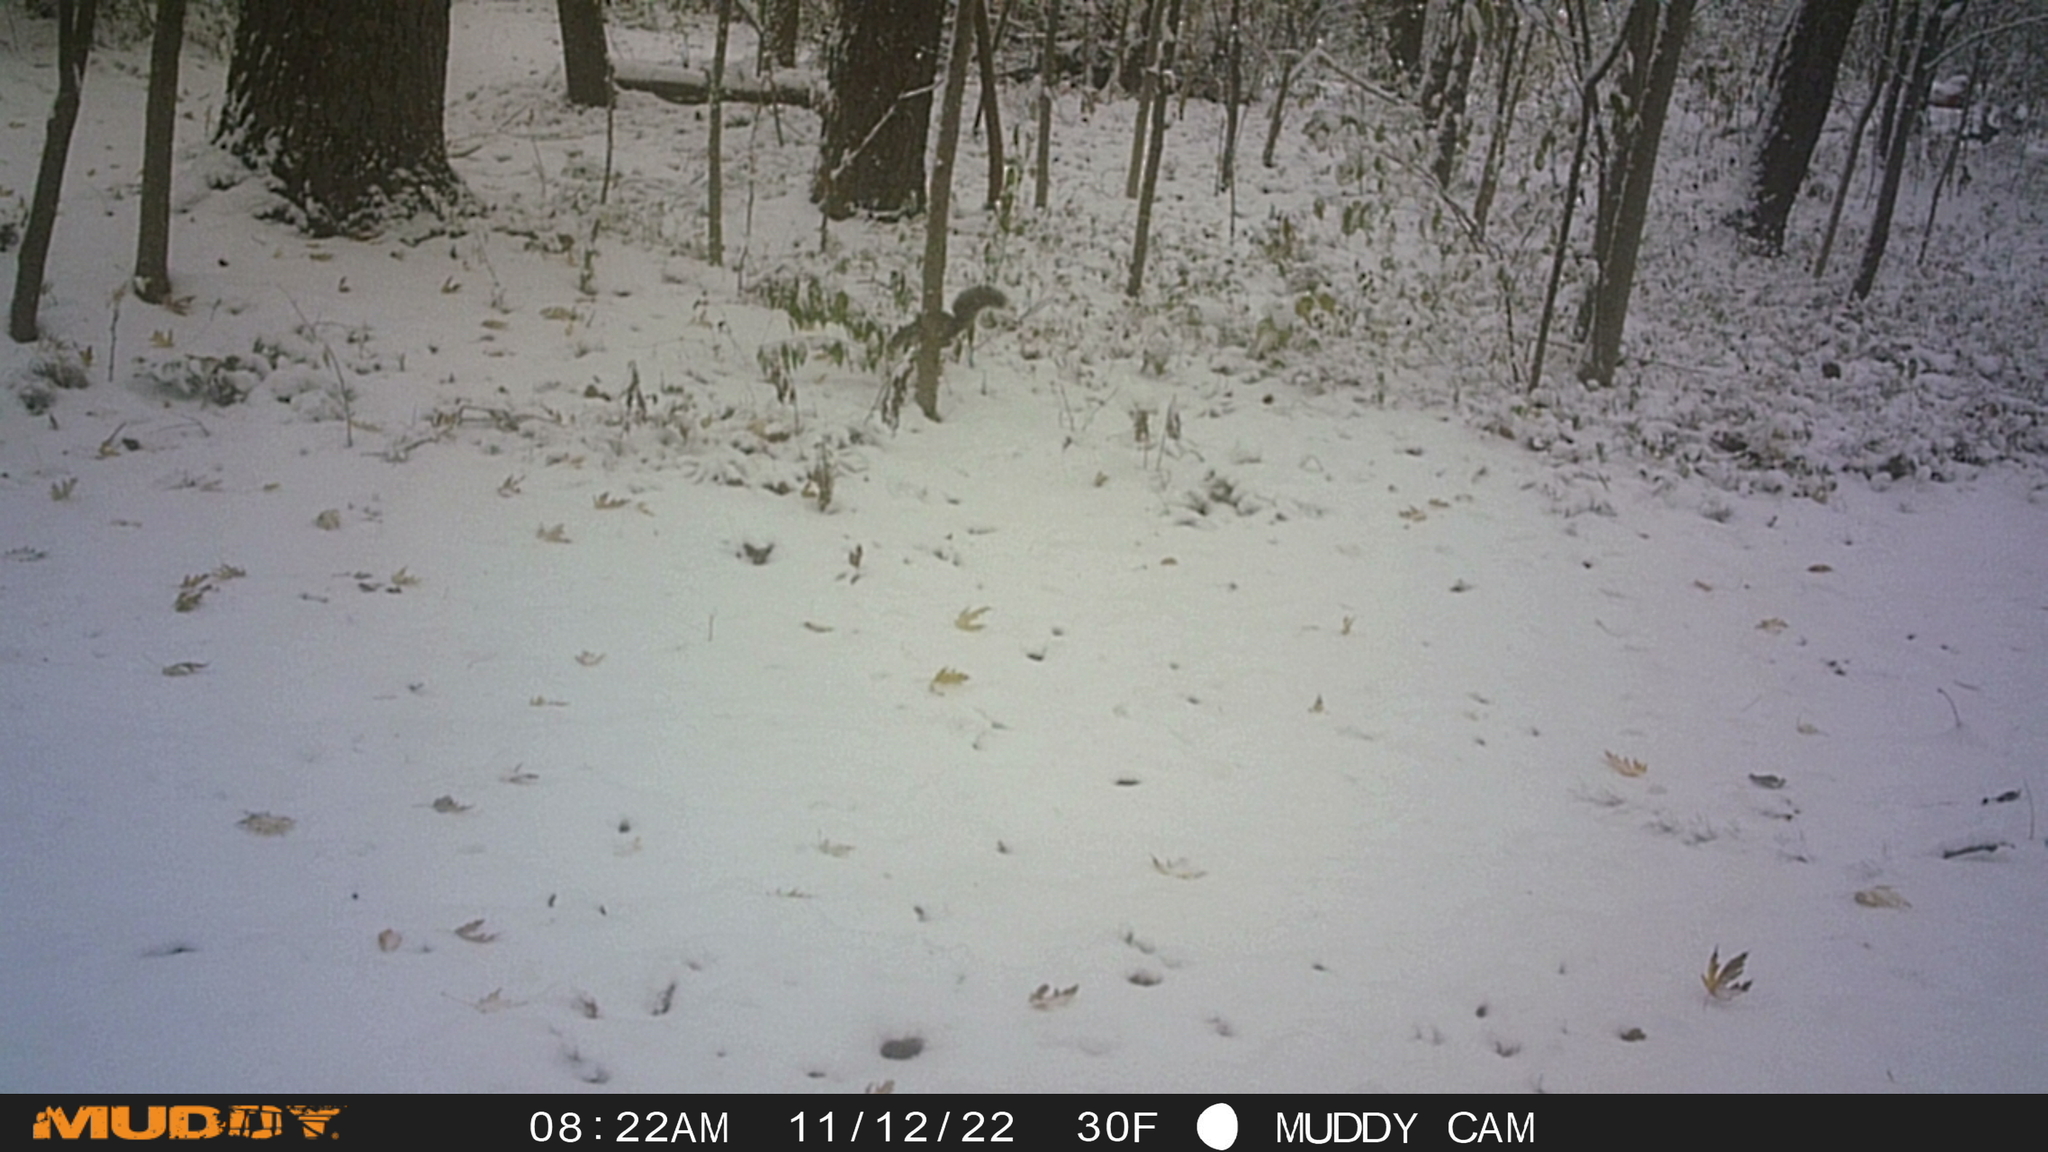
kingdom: Animalia
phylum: Chordata
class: Mammalia
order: Rodentia
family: Sciuridae
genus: Sciurus
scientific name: Sciurus carolinensis
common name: Eastern gray squirrel
